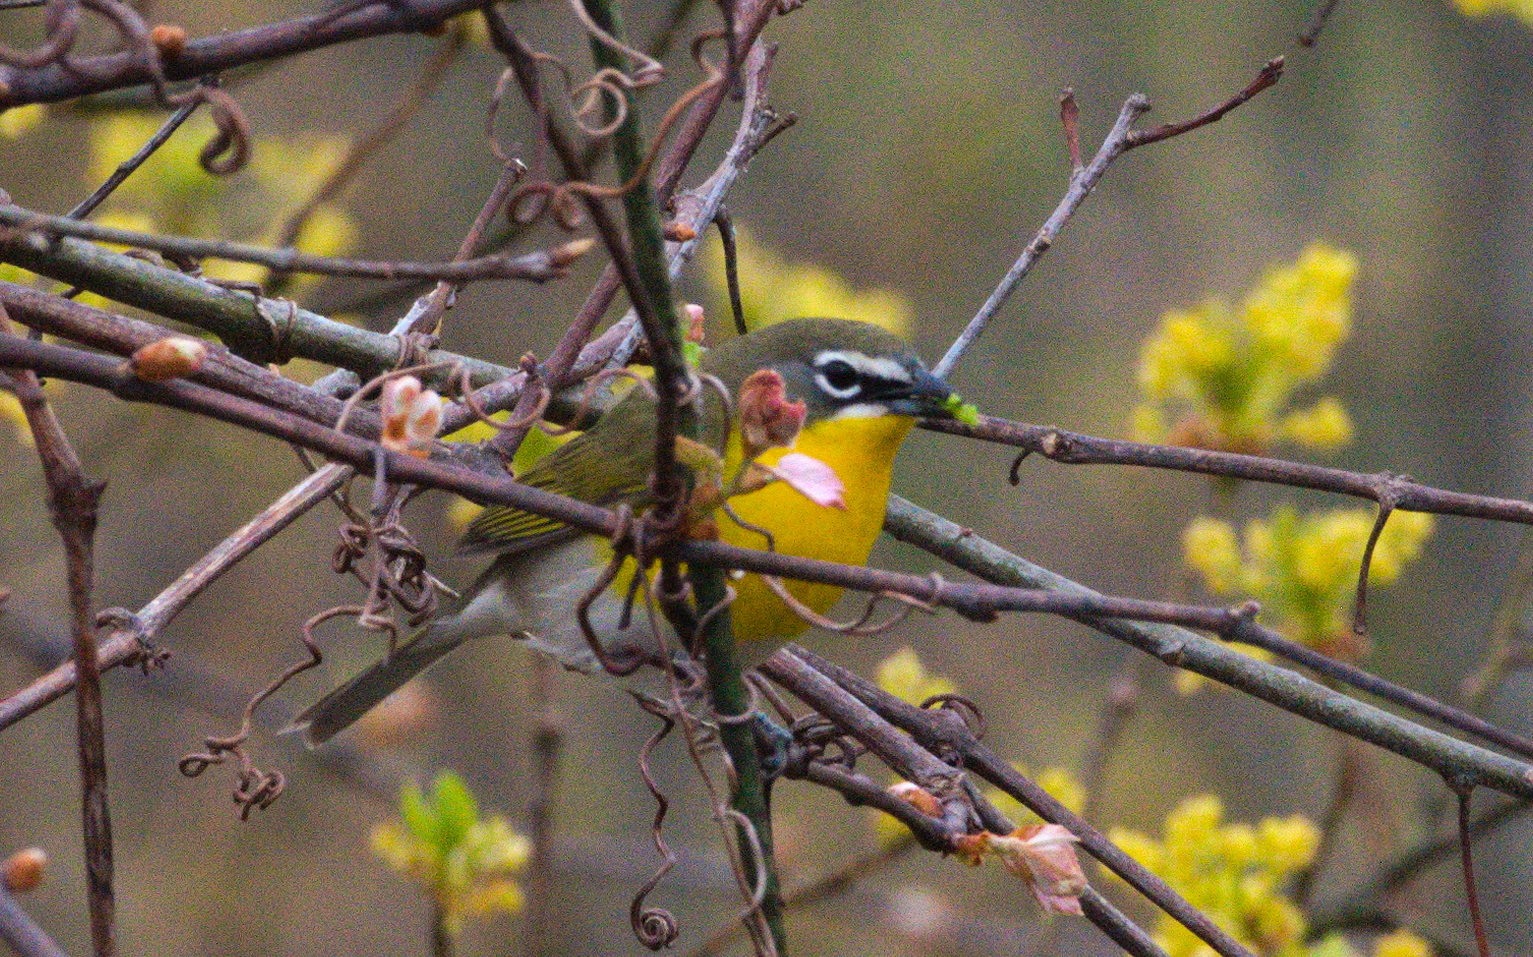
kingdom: Animalia
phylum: Chordata
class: Aves
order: Passeriformes
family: Parulidae
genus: Icteria
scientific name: Icteria virens
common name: Yellow-breasted chat
